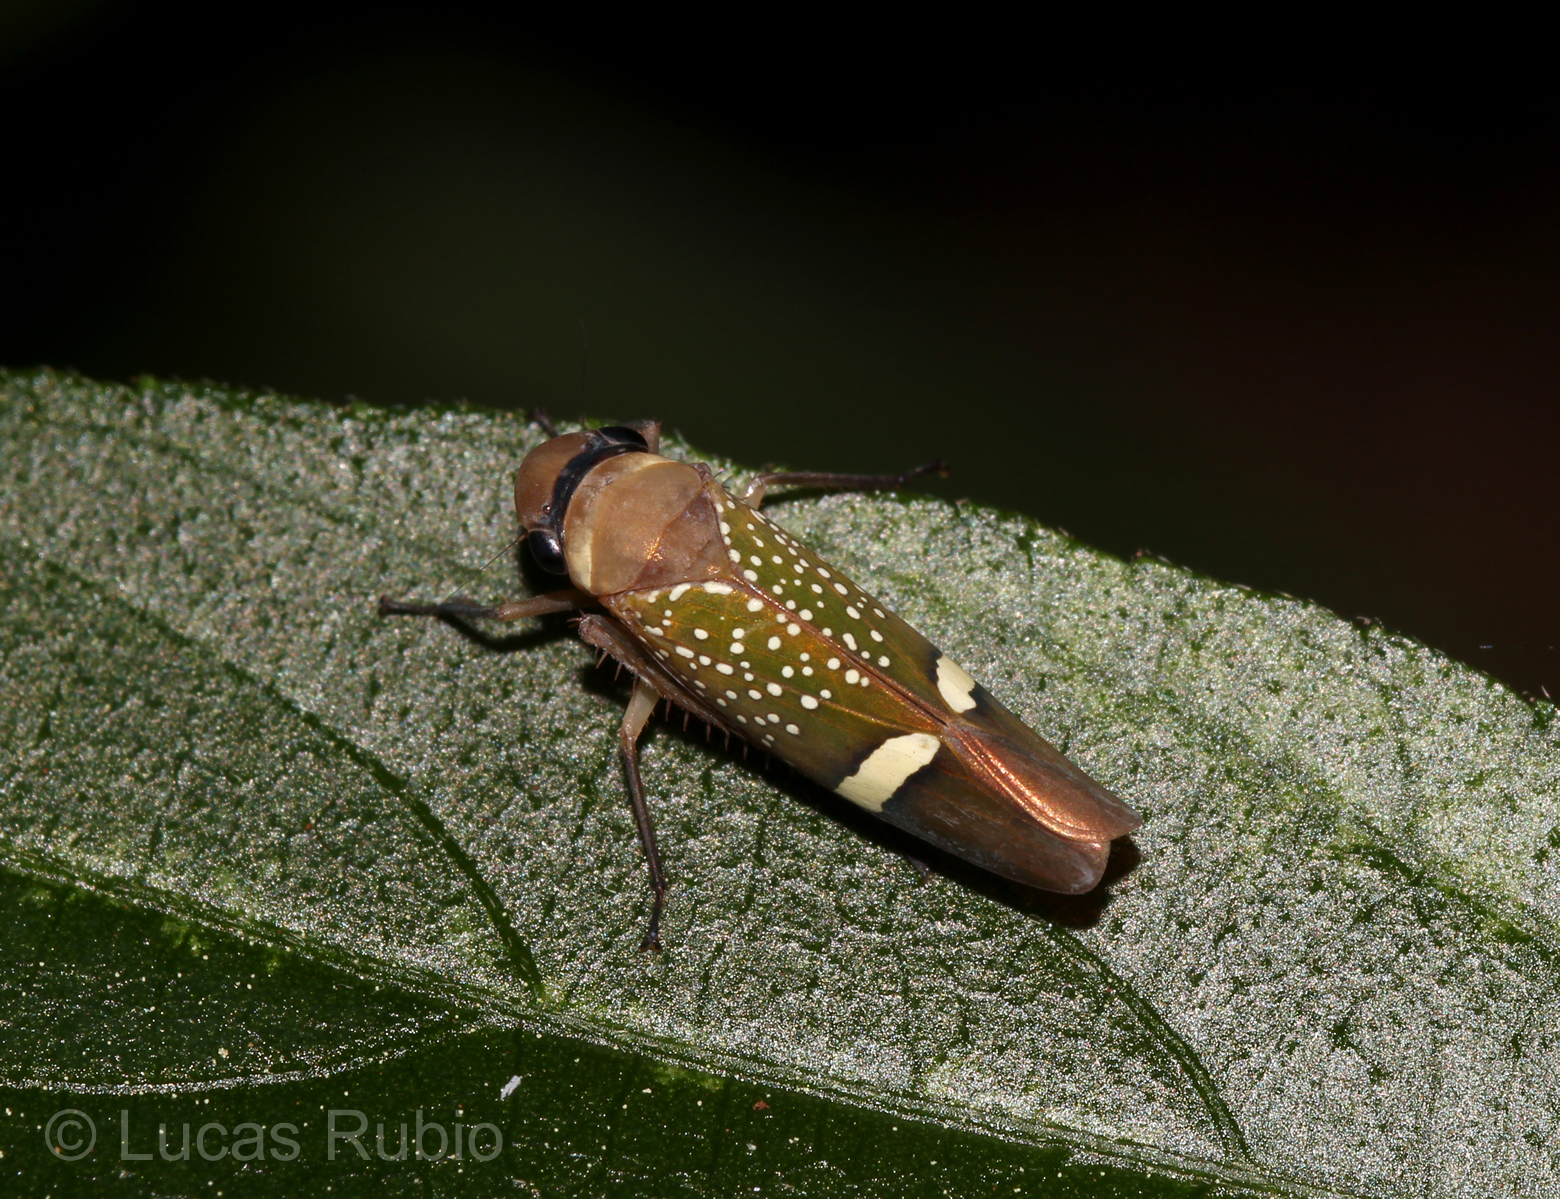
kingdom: Animalia
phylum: Arthropoda
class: Insecta
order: Hemiptera
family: Cicadellidae
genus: Scoposcartula
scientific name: Scoposcartula limitata
